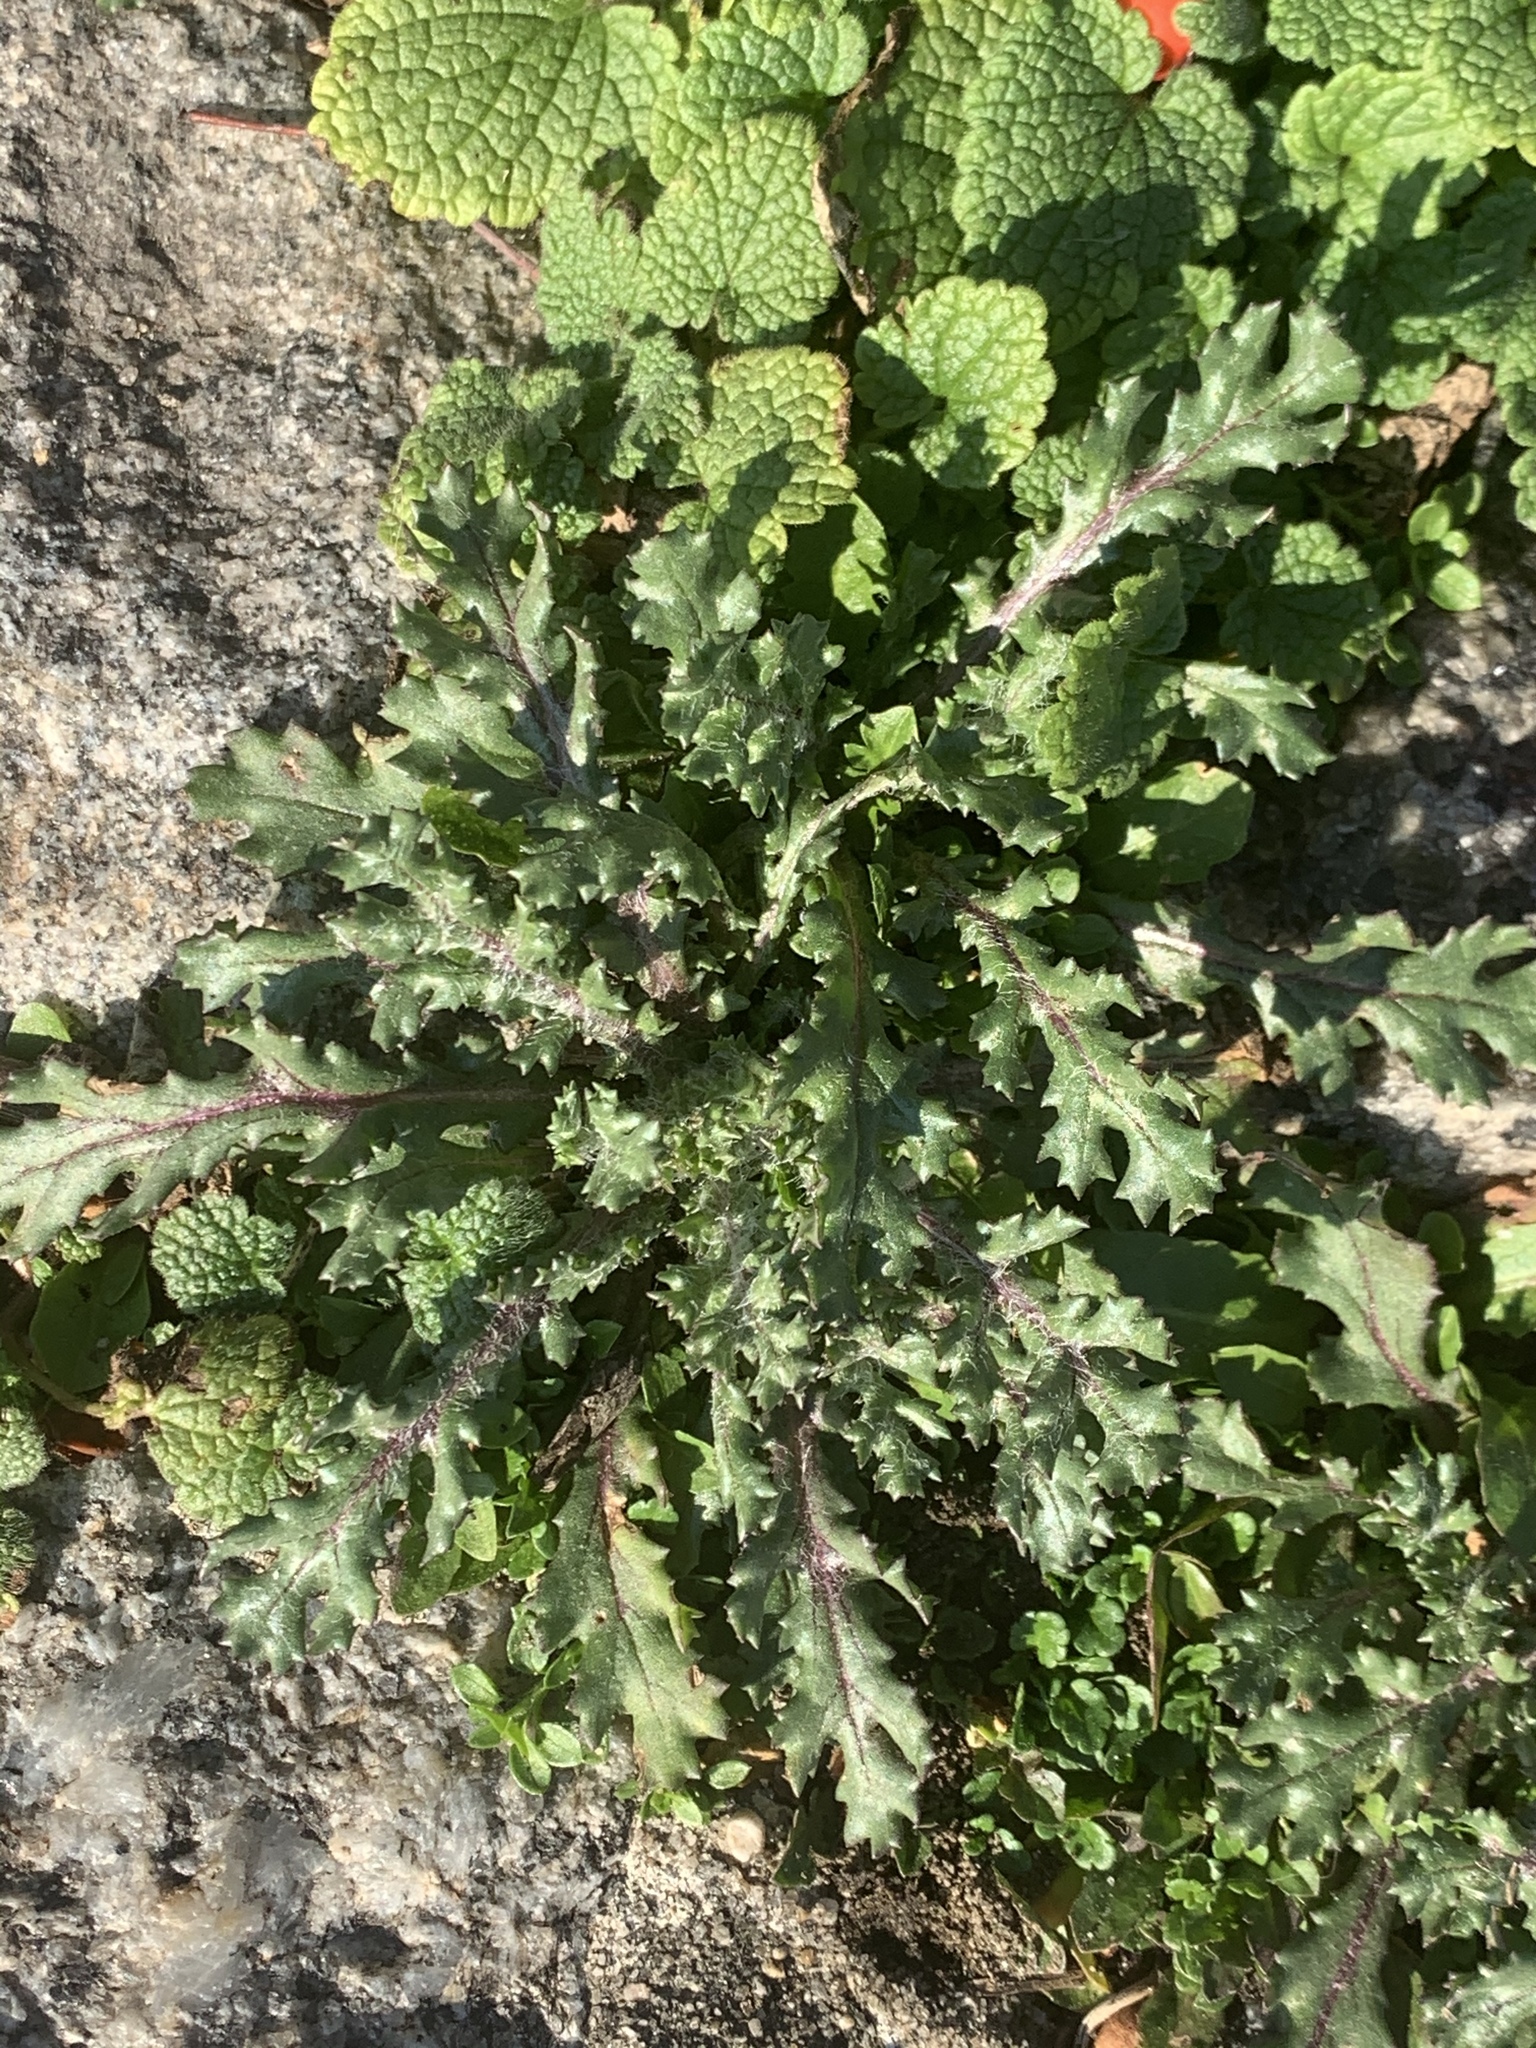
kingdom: Plantae
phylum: Tracheophyta
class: Magnoliopsida
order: Asterales
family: Asteraceae
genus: Senecio
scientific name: Senecio vulgaris
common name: Old-man-in-the-spring
